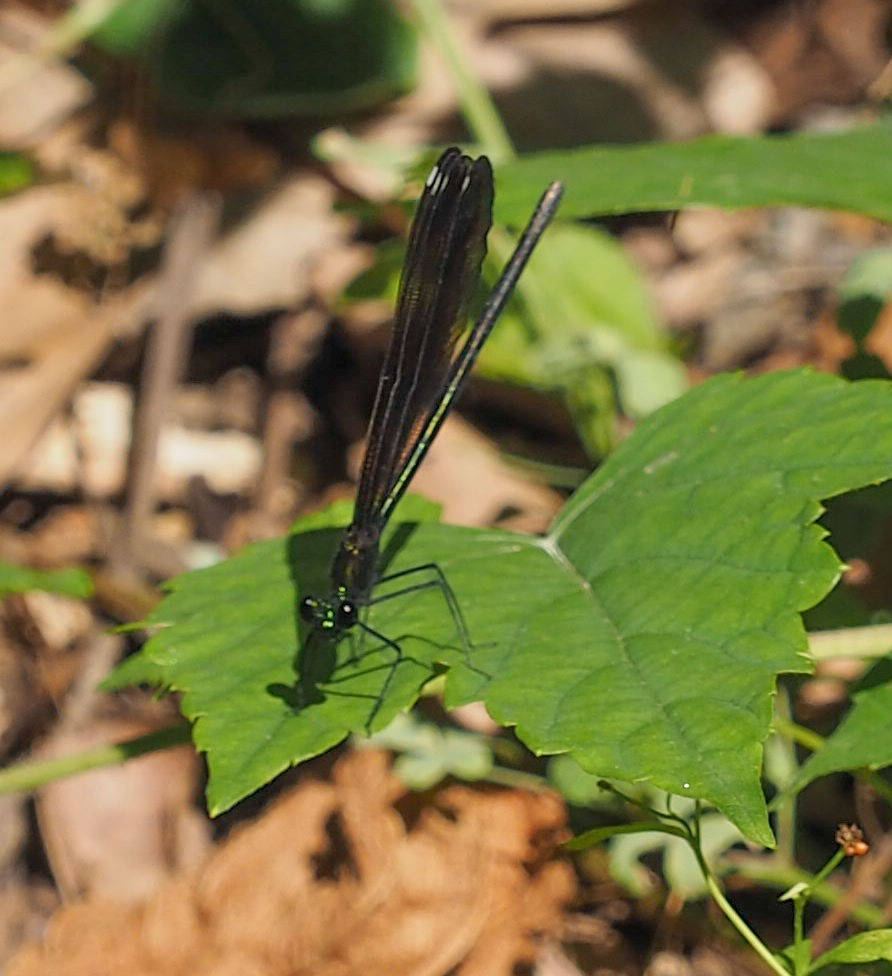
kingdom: Animalia
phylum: Arthropoda
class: Insecta
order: Odonata
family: Calopterygidae
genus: Calopteryx
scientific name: Calopteryx maculata
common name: Ebony jewelwing
